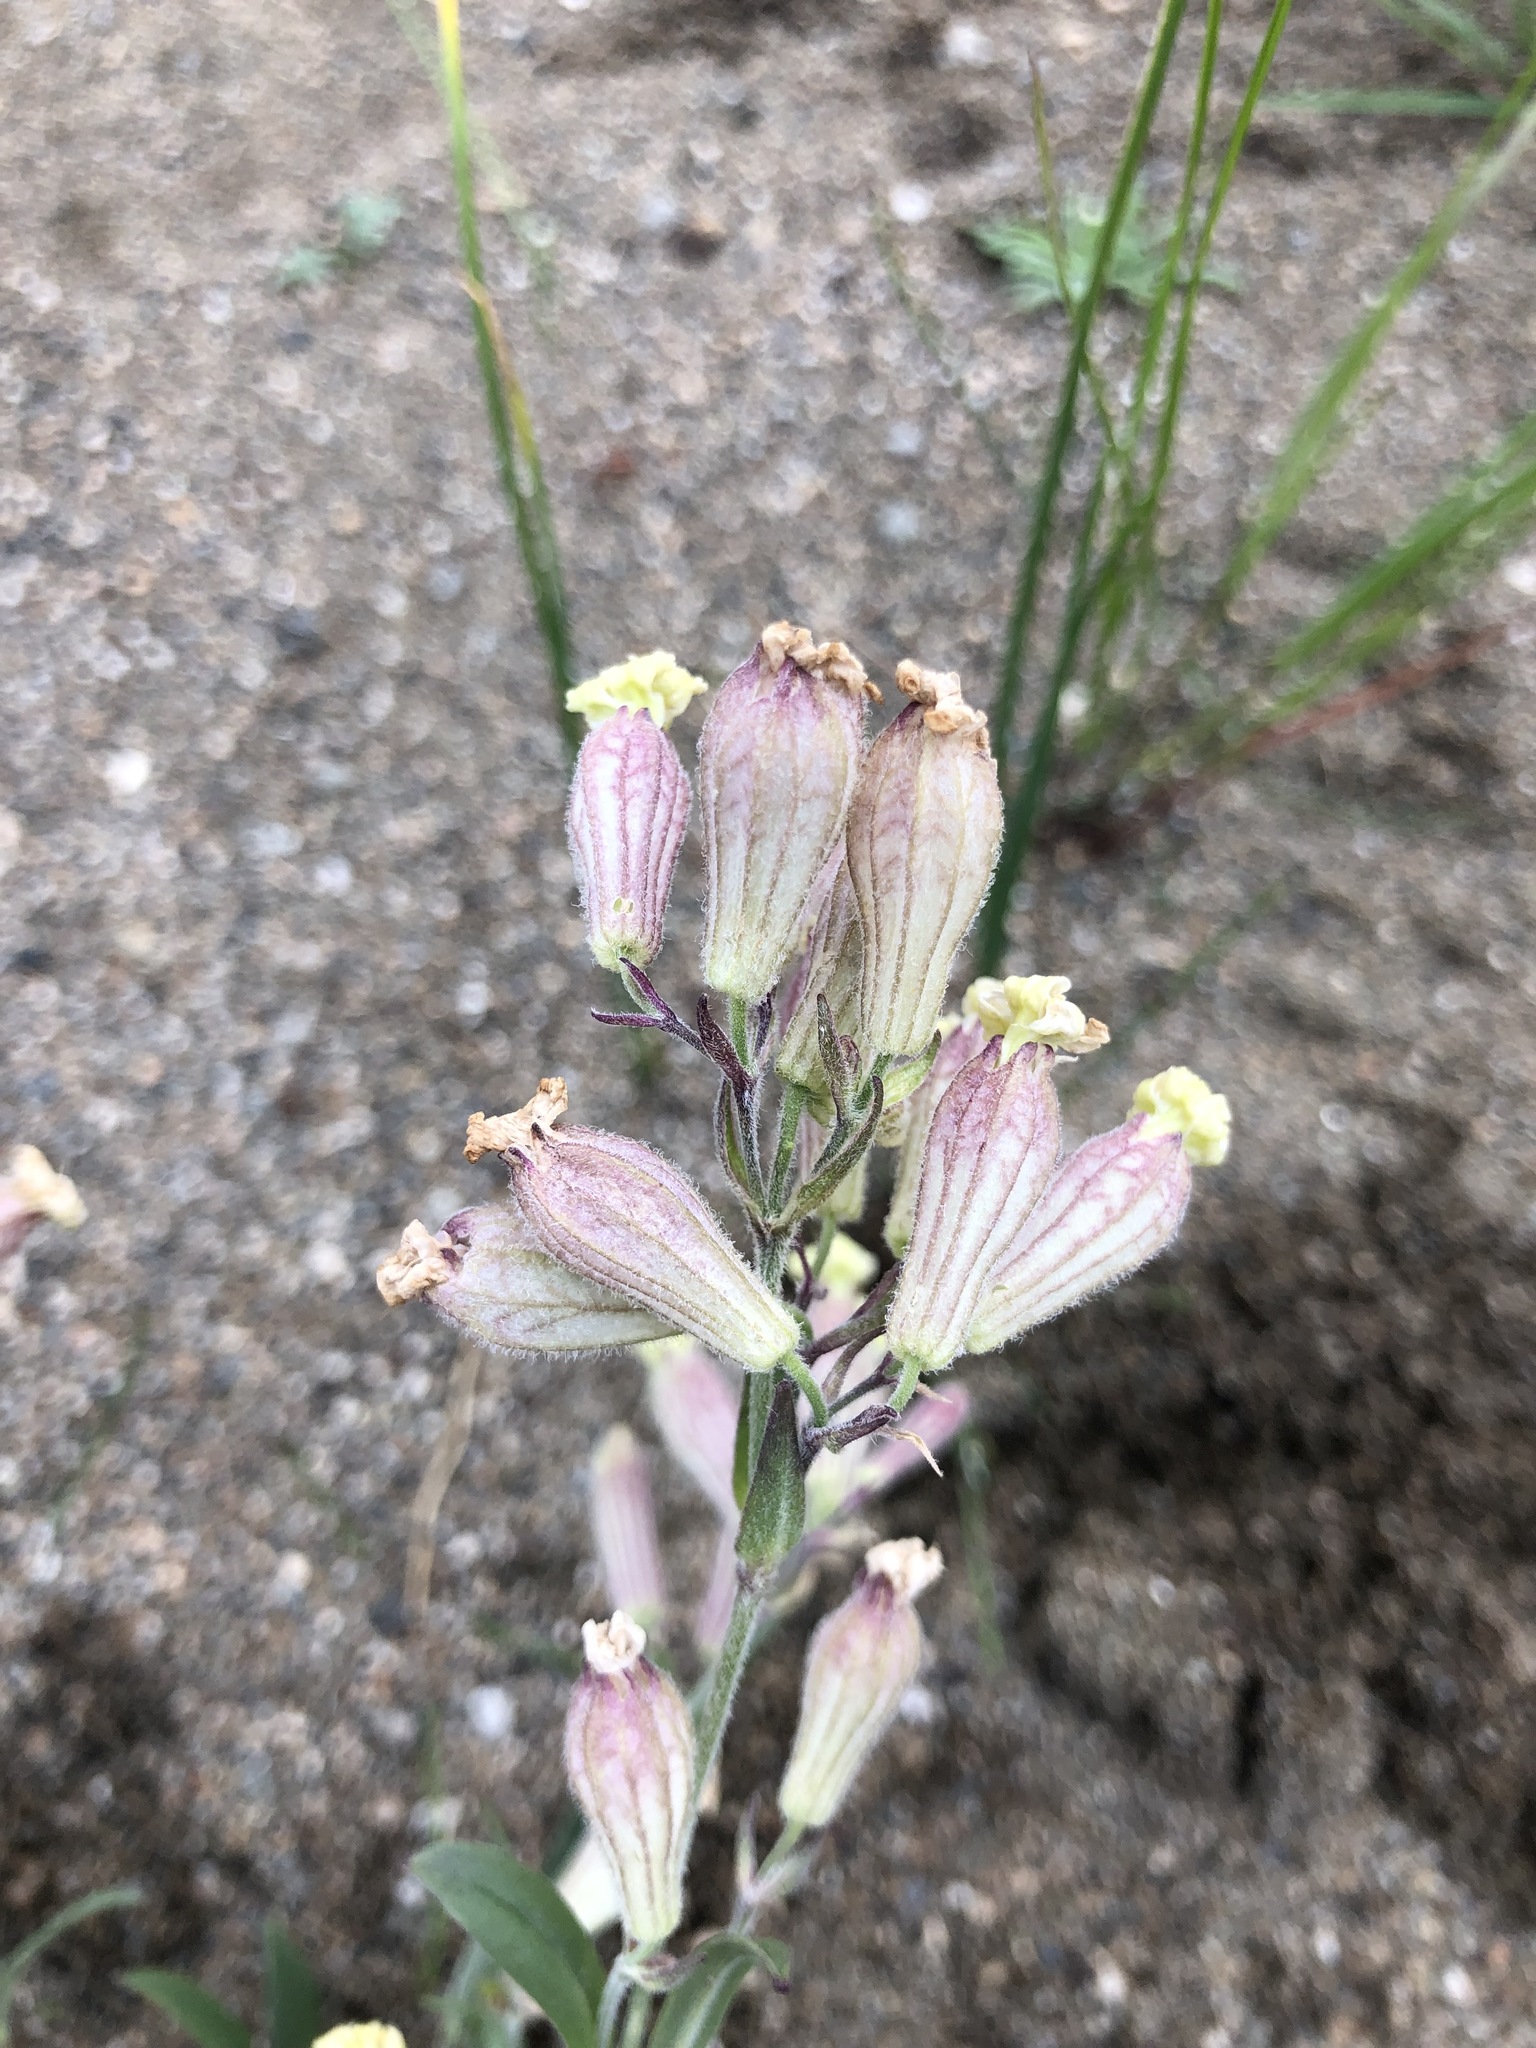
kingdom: Plantae
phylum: Tracheophyta
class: Magnoliopsida
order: Caryophyllales
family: Caryophyllaceae
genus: Silene
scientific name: Silene amoena
